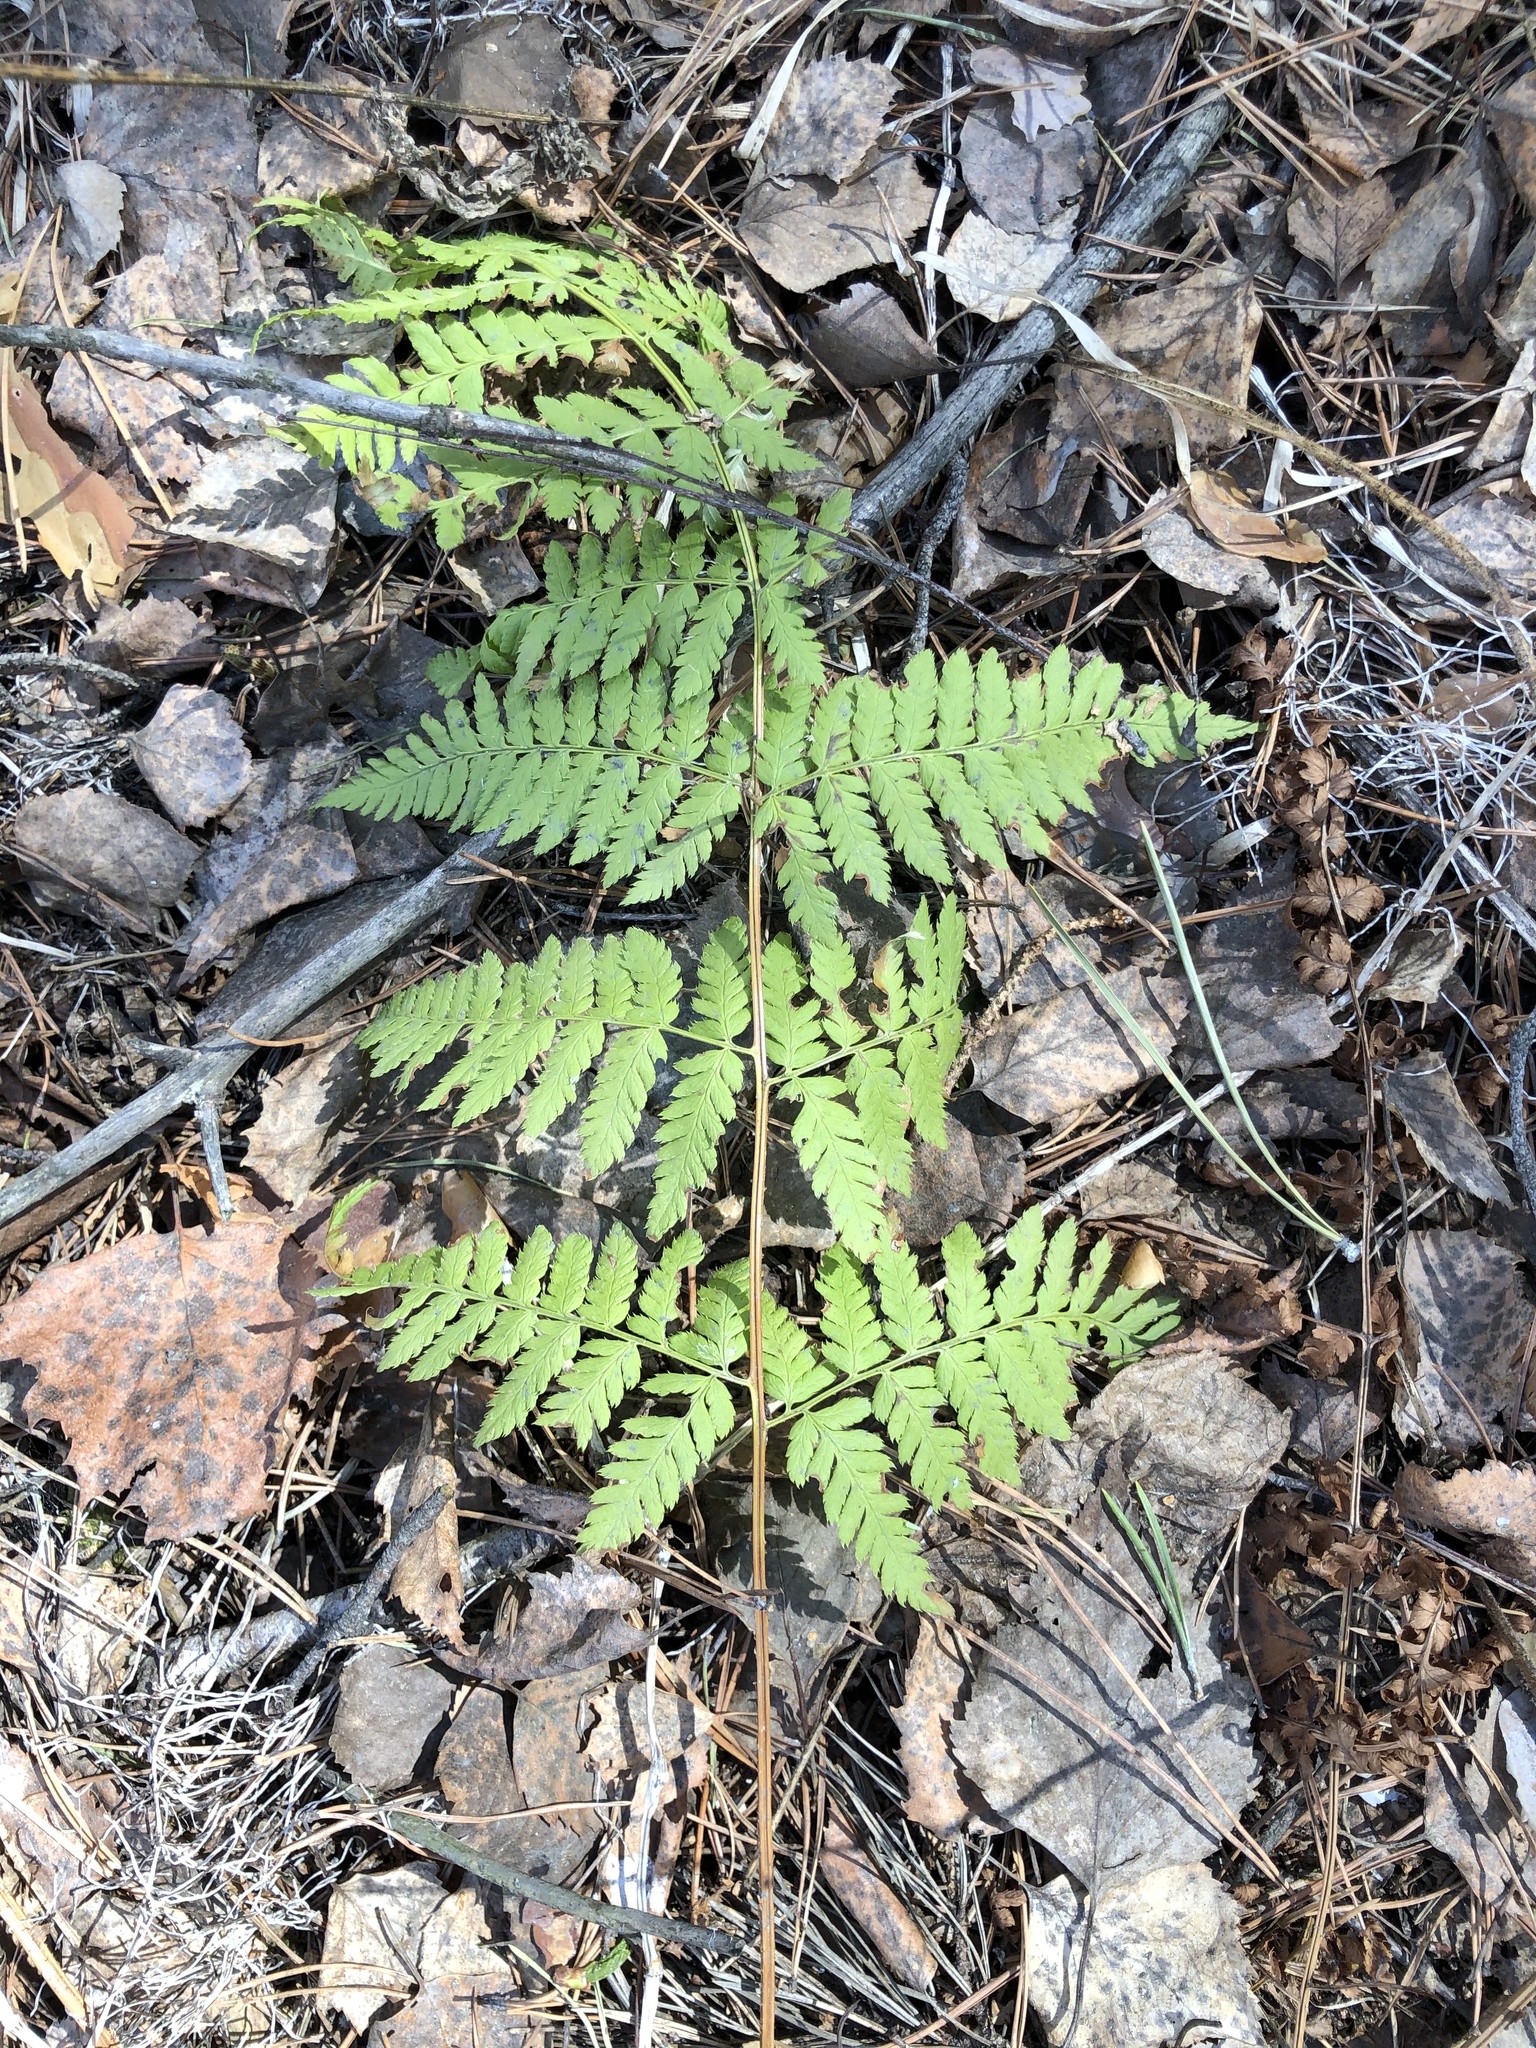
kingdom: Plantae
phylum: Tracheophyta
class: Polypodiopsida
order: Polypodiales
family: Dryopteridaceae
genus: Dryopteris
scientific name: Dryopteris carthusiana
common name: Narrow buckler-fern
